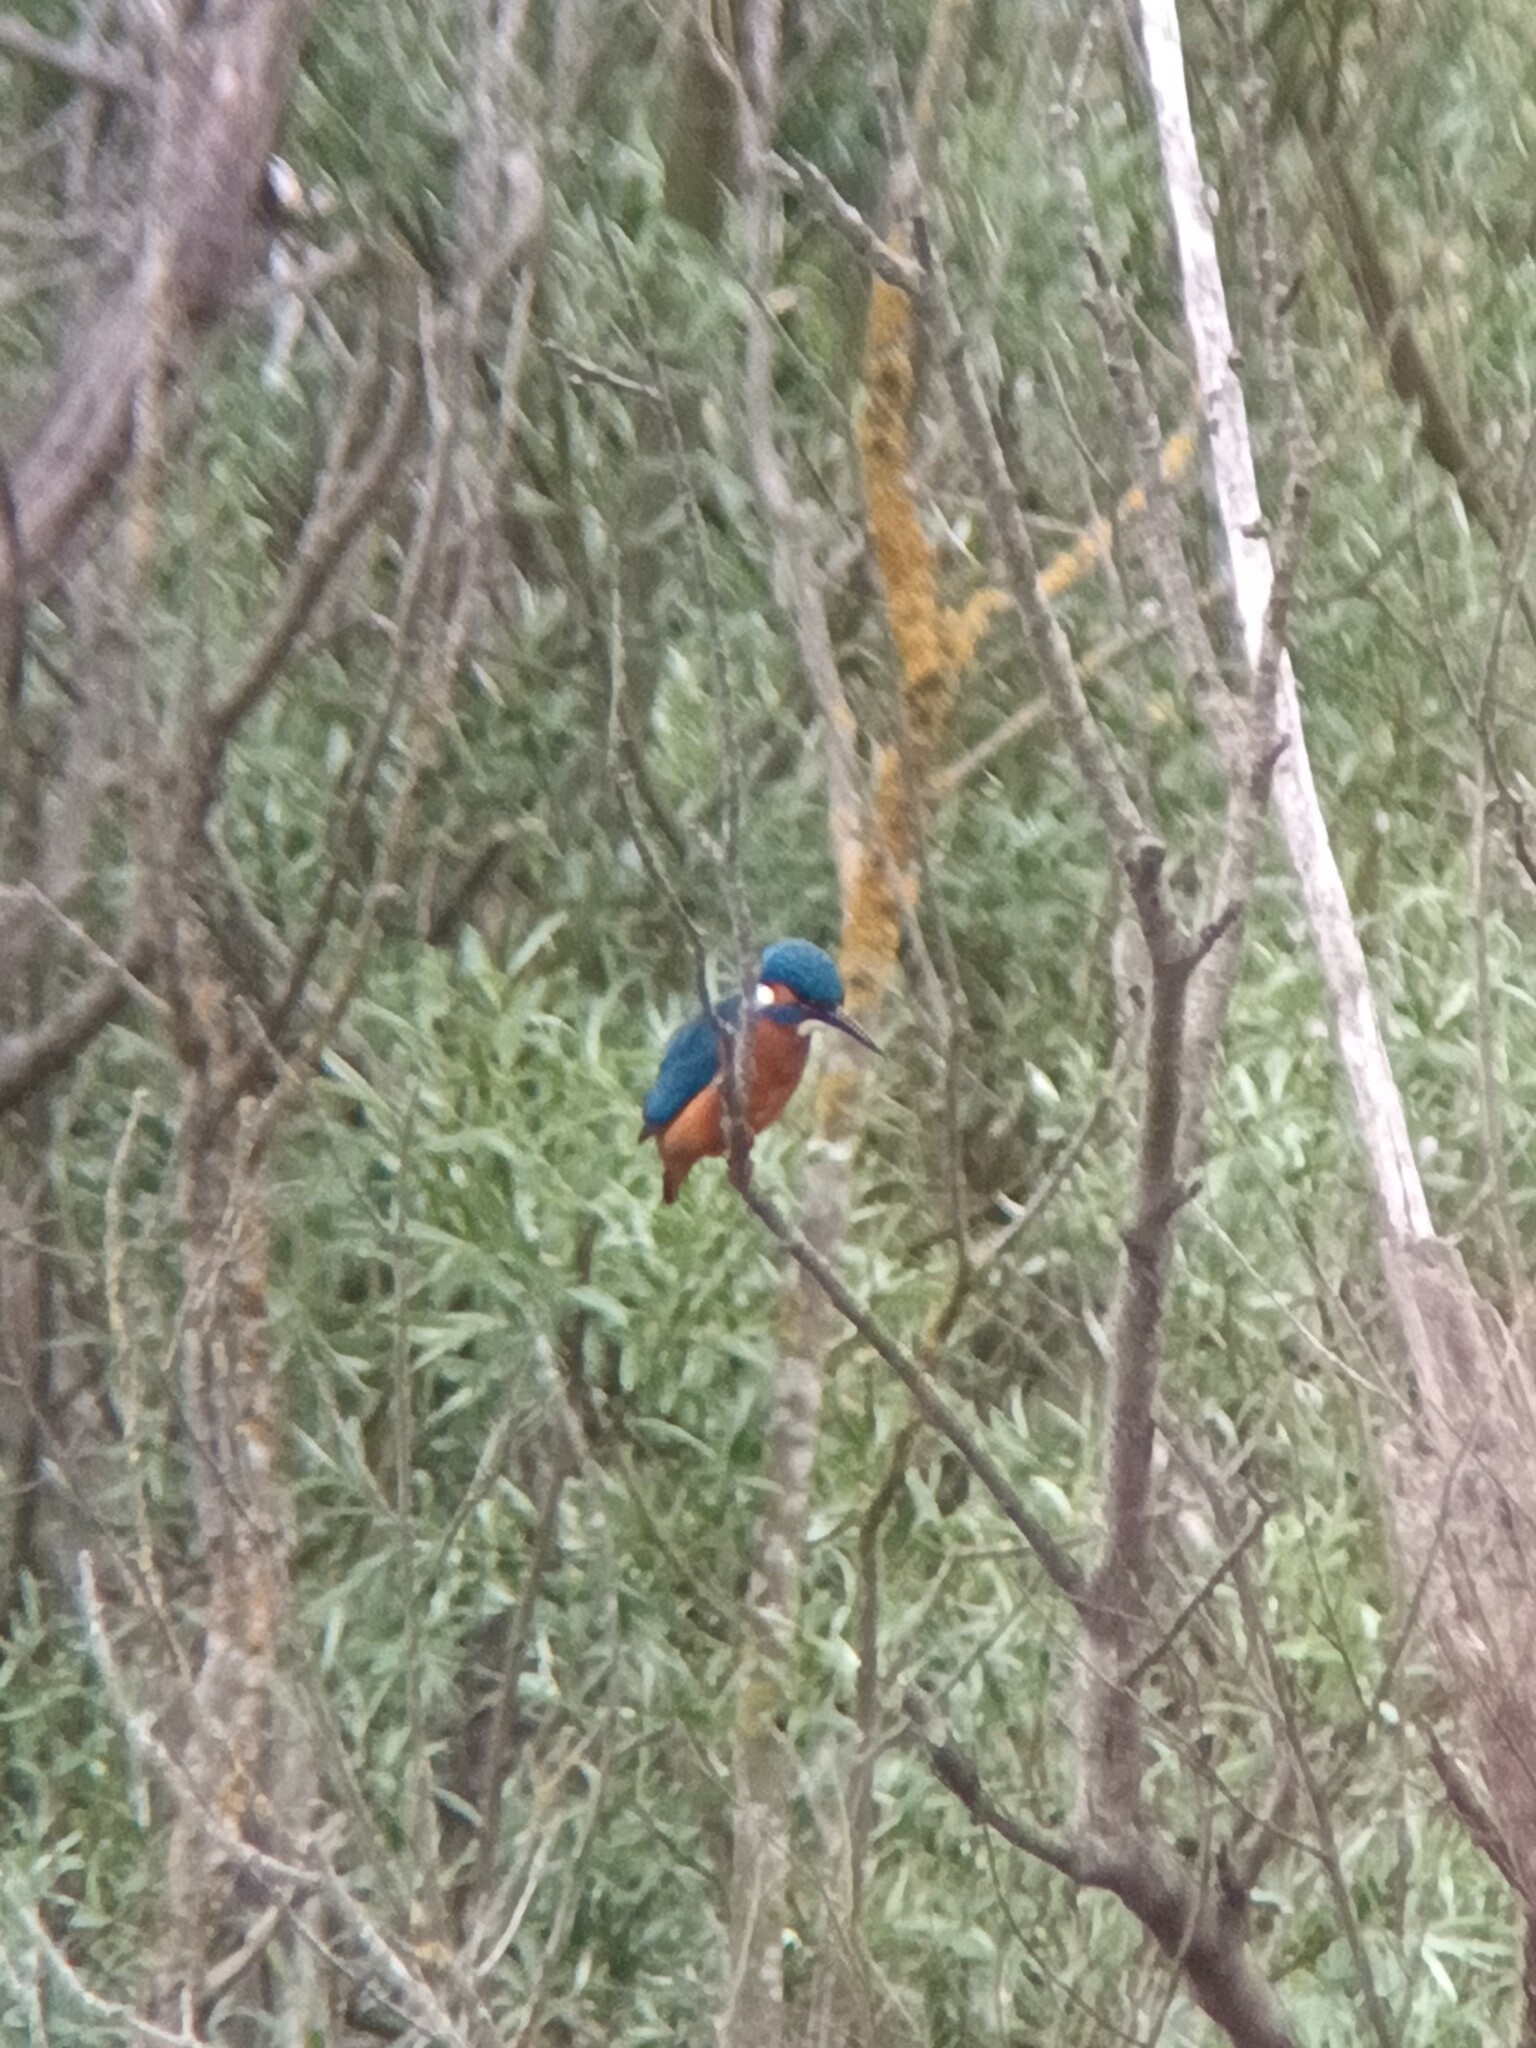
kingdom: Animalia
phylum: Chordata
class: Aves
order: Coraciiformes
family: Alcedinidae
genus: Alcedo
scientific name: Alcedo atthis
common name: Common kingfisher
